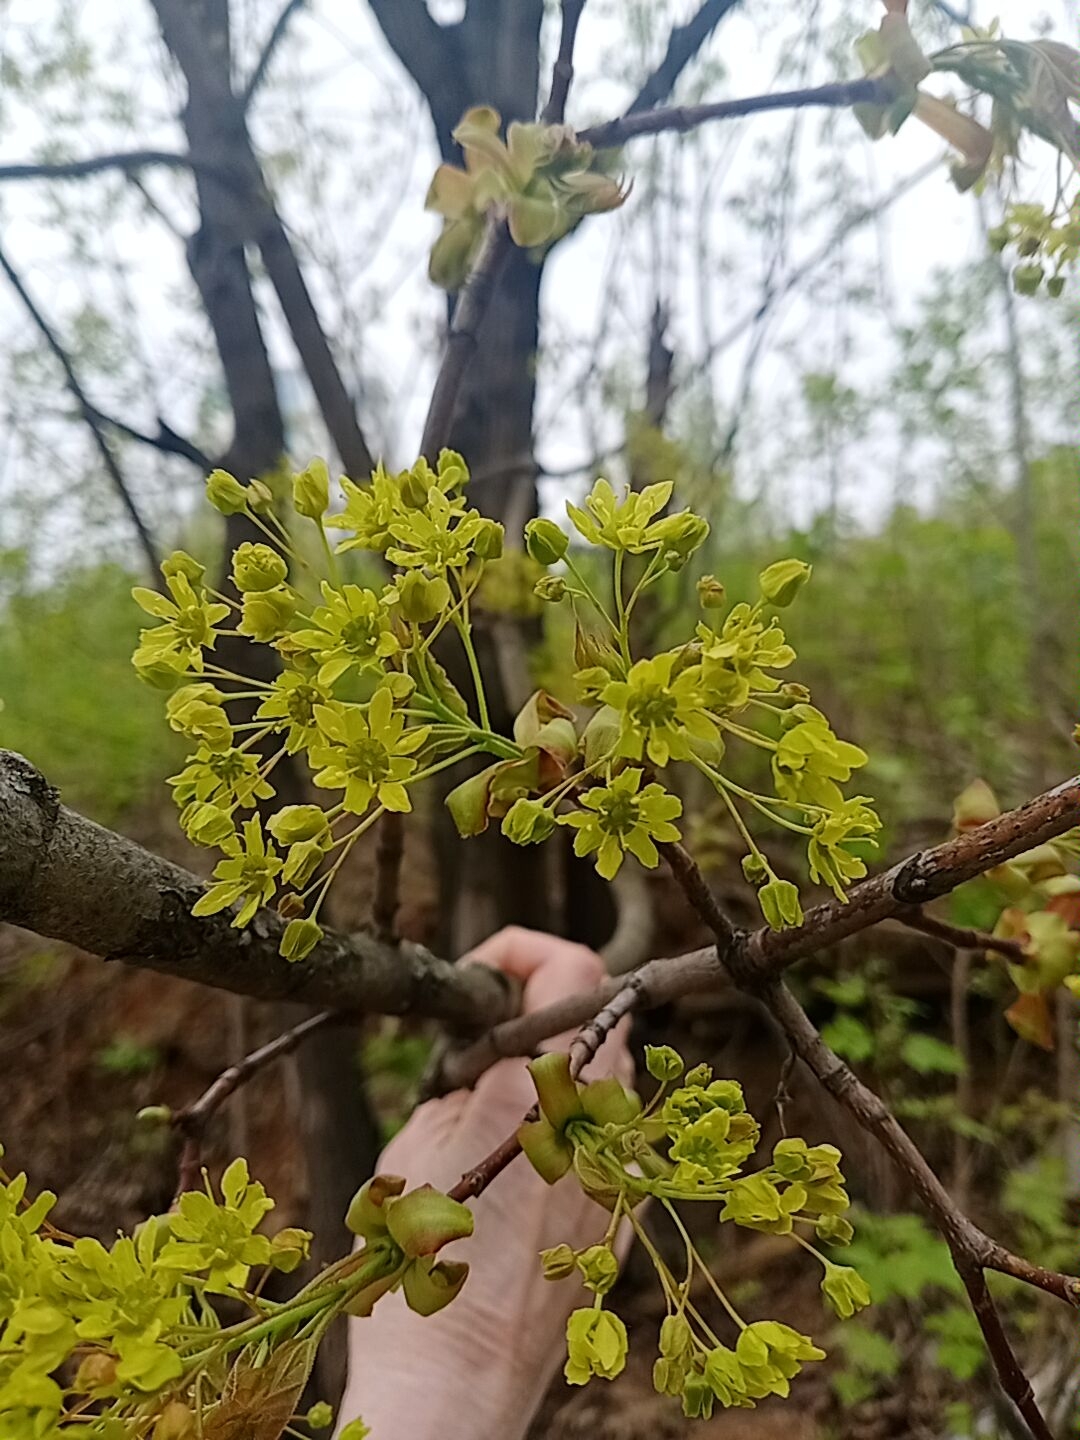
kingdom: Plantae
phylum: Tracheophyta
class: Magnoliopsida
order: Sapindales
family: Sapindaceae
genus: Acer
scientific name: Acer platanoides
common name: Norway maple
